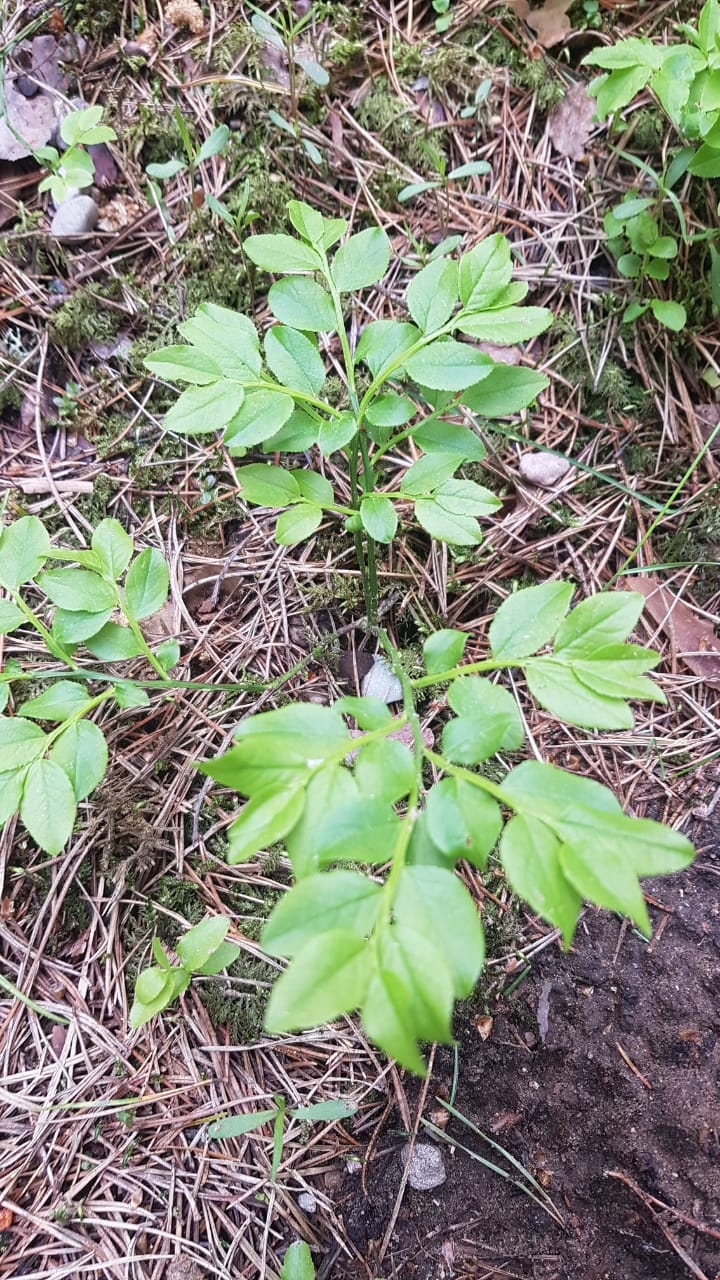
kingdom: Plantae
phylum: Tracheophyta
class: Magnoliopsida
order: Ericales
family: Ericaceae
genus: Vaccinium
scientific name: Vaccinium myrtillus
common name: Bilberry
